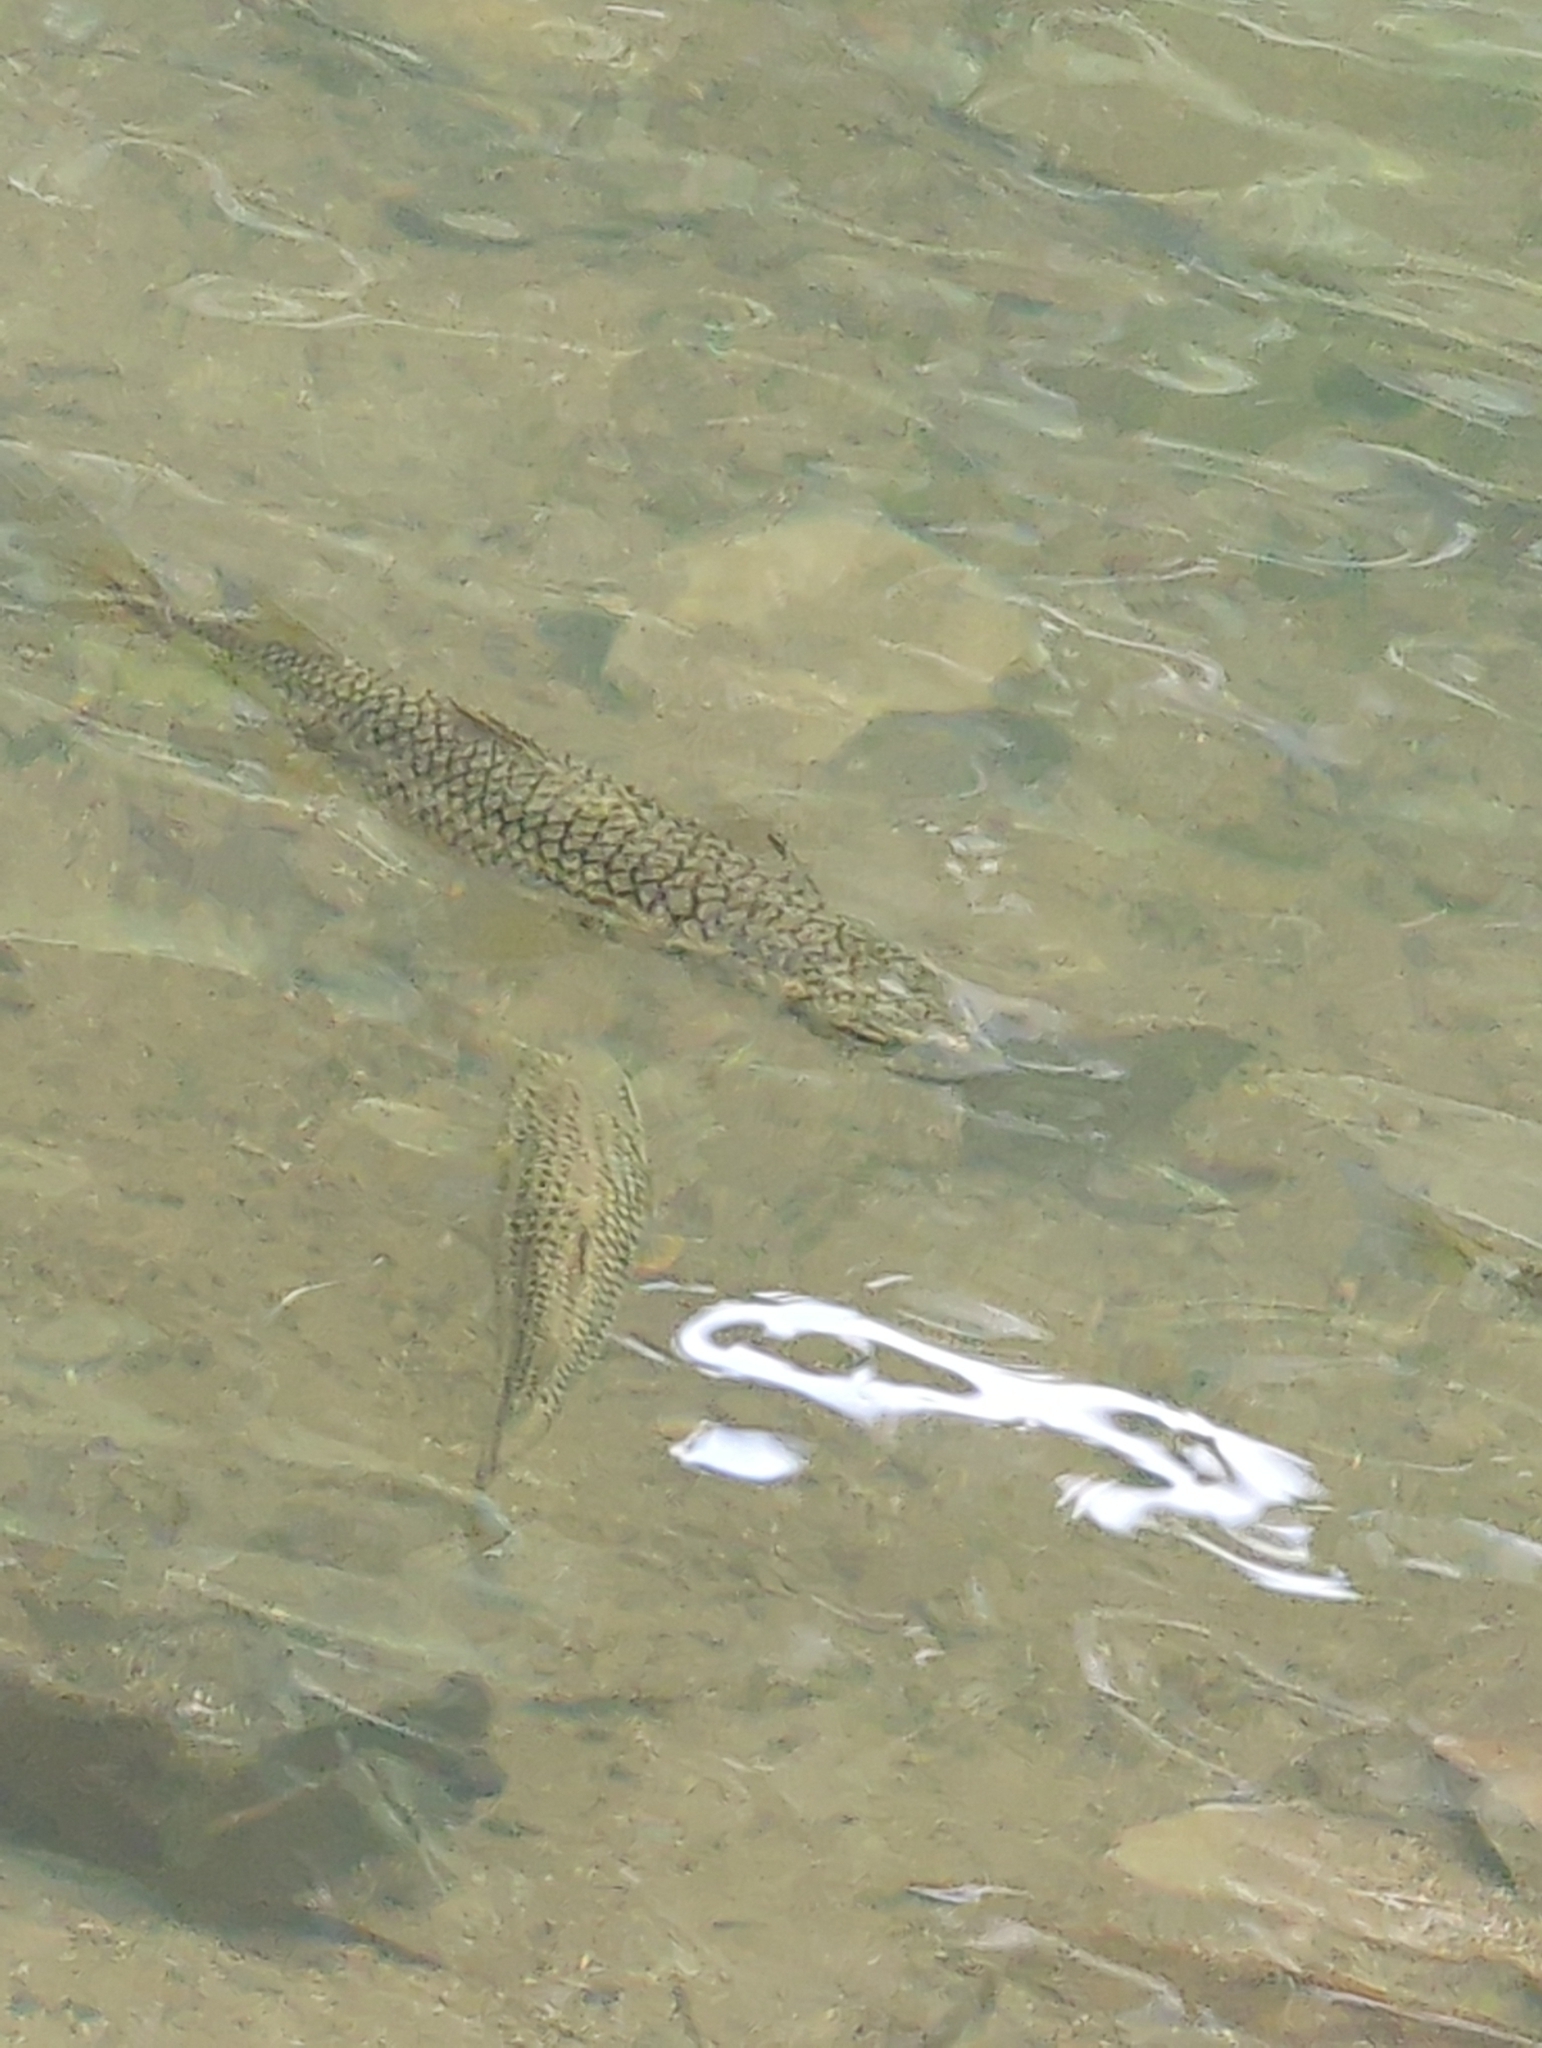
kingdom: Animalia
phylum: Chordata
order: Mugiliformes
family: Mugilidae
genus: Dajaus
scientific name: Dajaus monticola
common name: Mountain mullet
